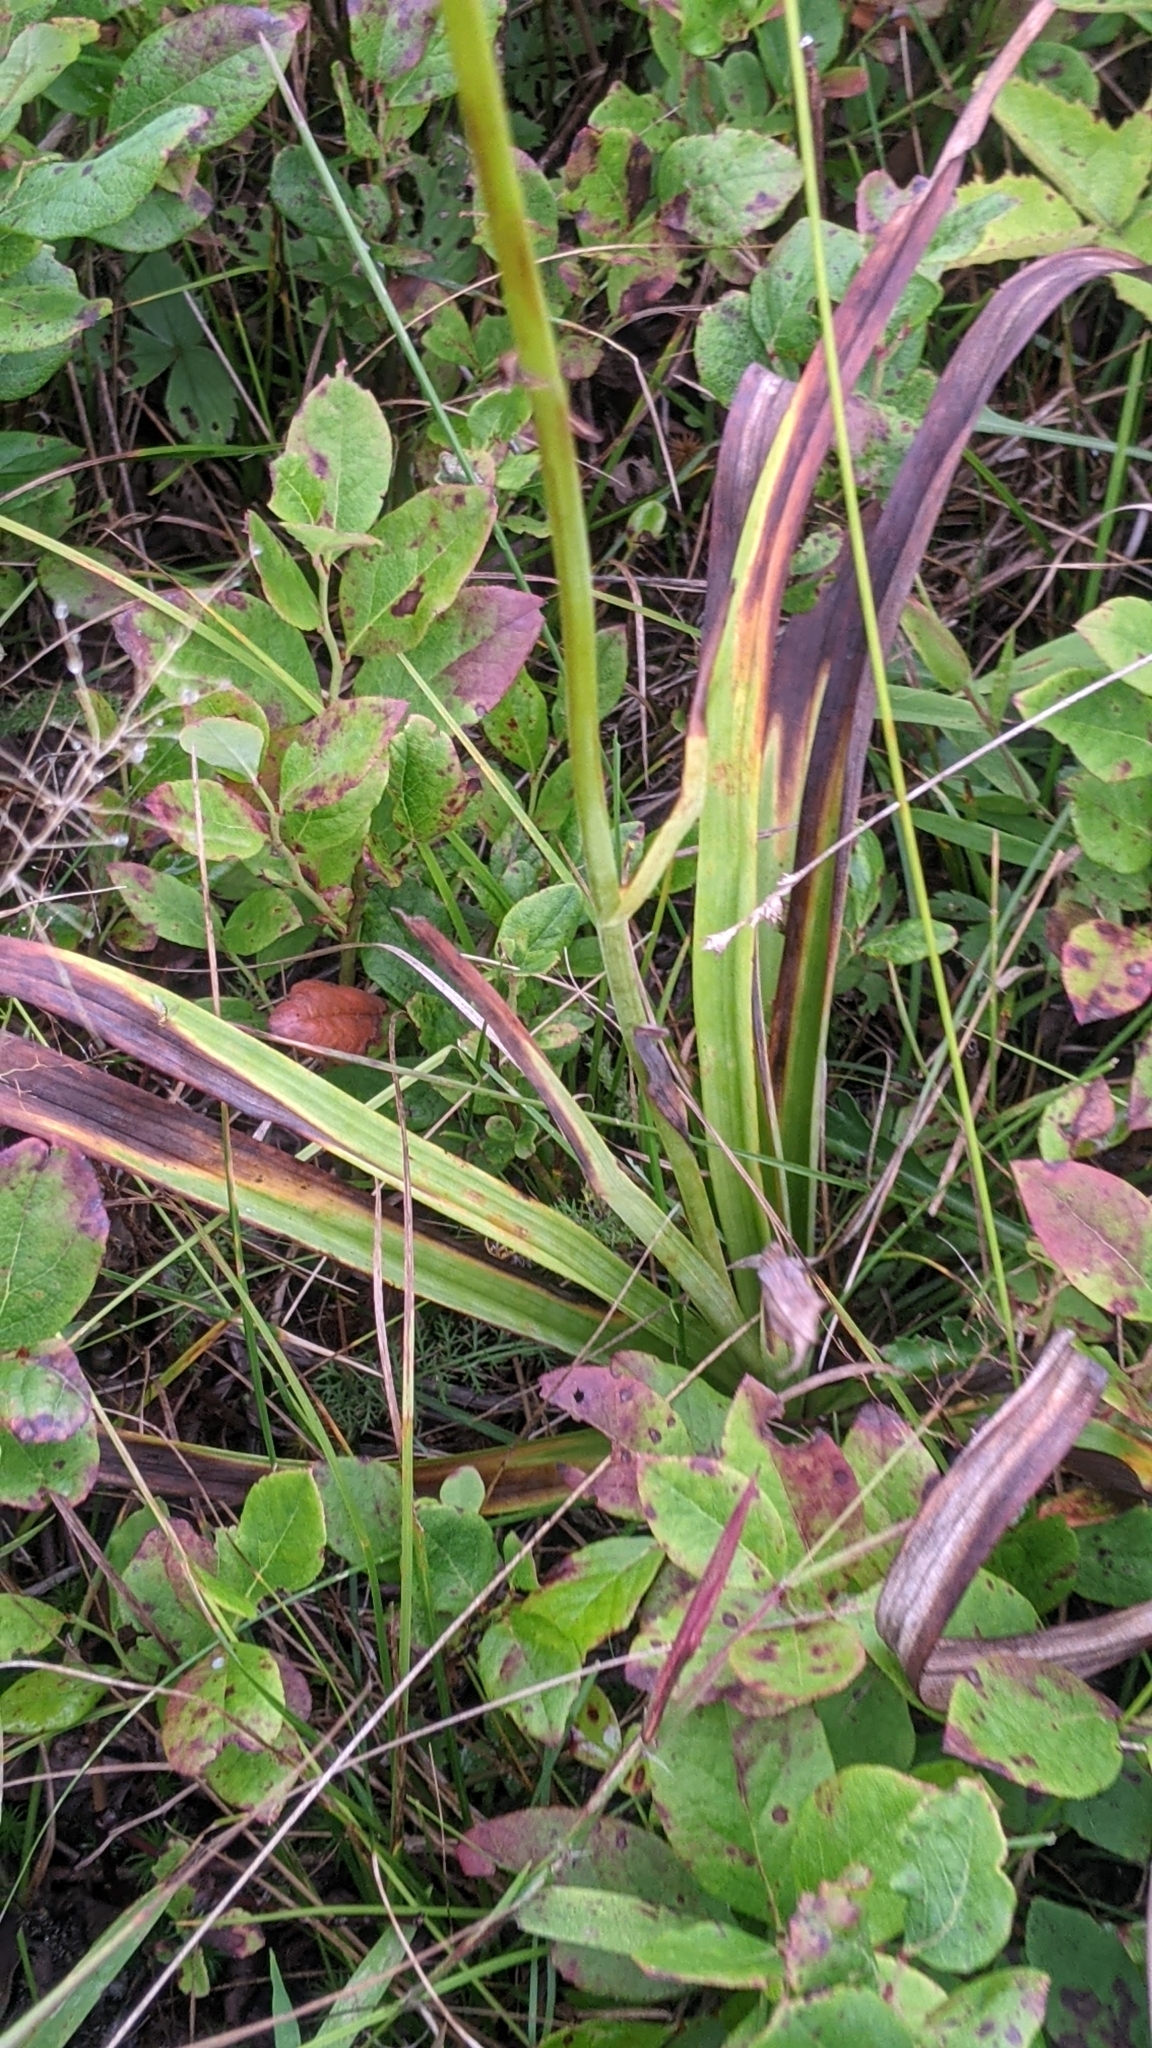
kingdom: Plantae
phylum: Tracheophyta
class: Liliopsida
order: Liliales
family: Melanthiaceae
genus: Amianthium
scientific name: Amianthium muscitoxicum
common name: Fly-poison
